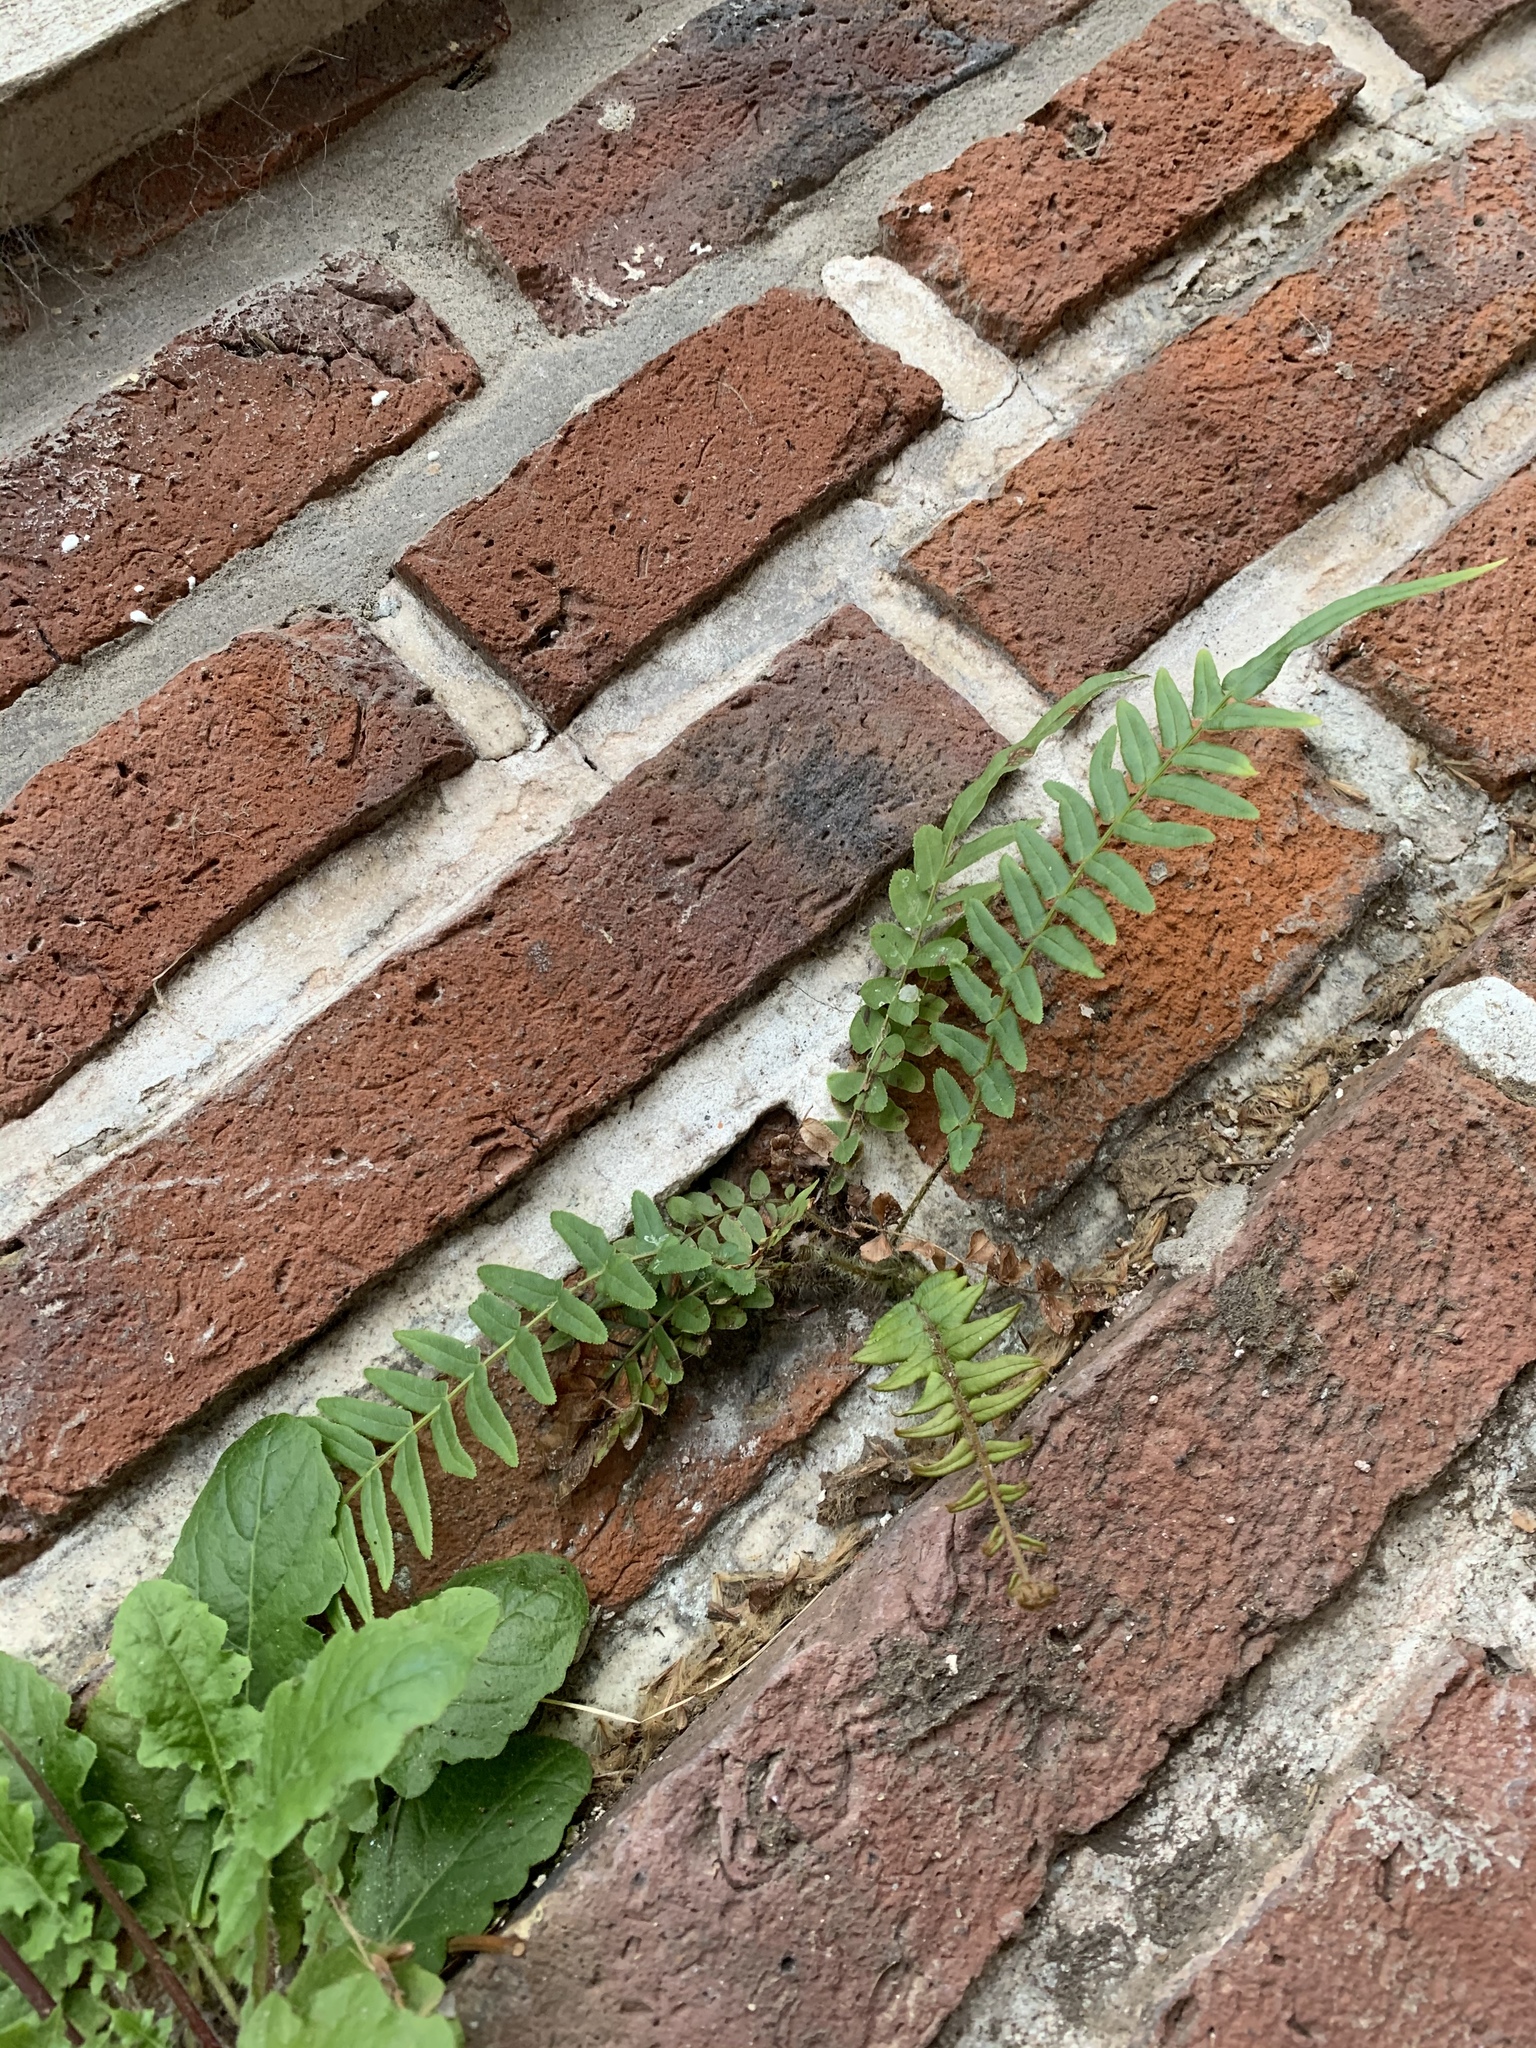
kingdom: Plantae
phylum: Tracheophyta
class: Polypodiopsida
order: Polypodiales
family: Pteridaceae
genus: Pteris
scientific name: Pteris vittata
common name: Ladder brake
